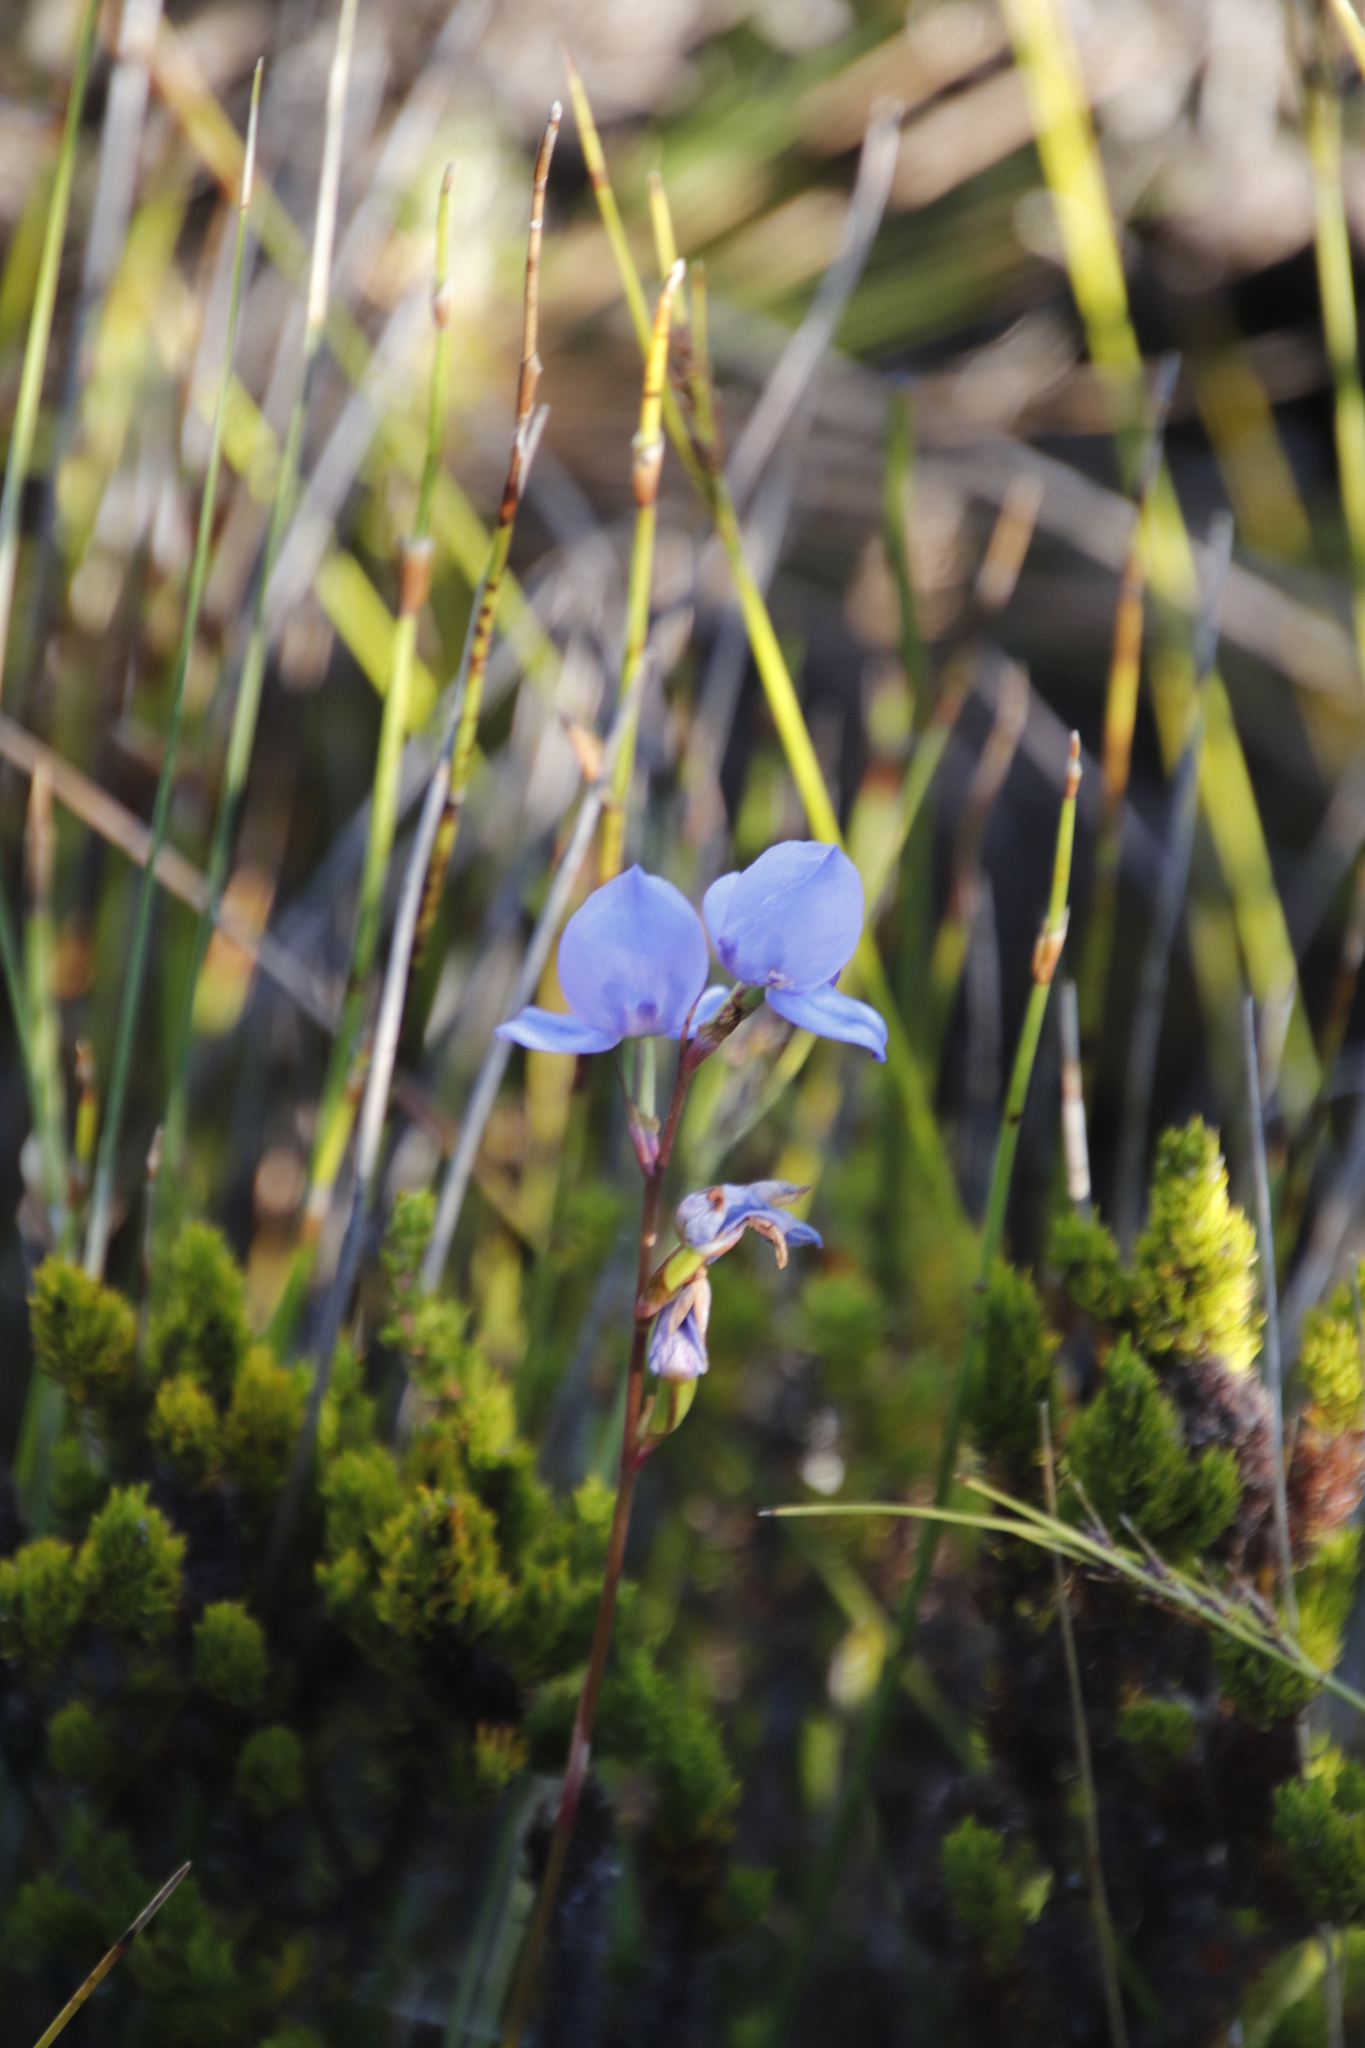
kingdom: Plantae
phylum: Tracheophyta
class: Liliopsida
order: Asparagales
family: Orchidaceae
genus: Disa
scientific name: Disa graminifolia
